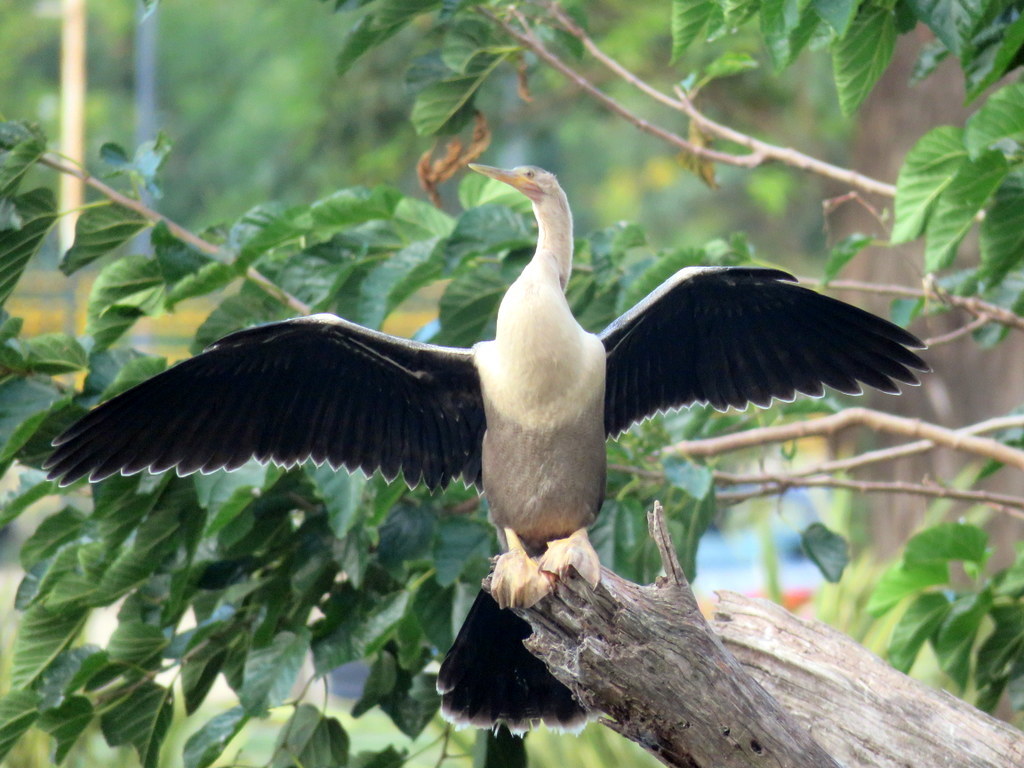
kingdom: Animalia
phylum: Chordata
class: Aves
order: Suliformes
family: Anhingidae
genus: Anhinga
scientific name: Anhinga anhinga
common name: Anhinga
